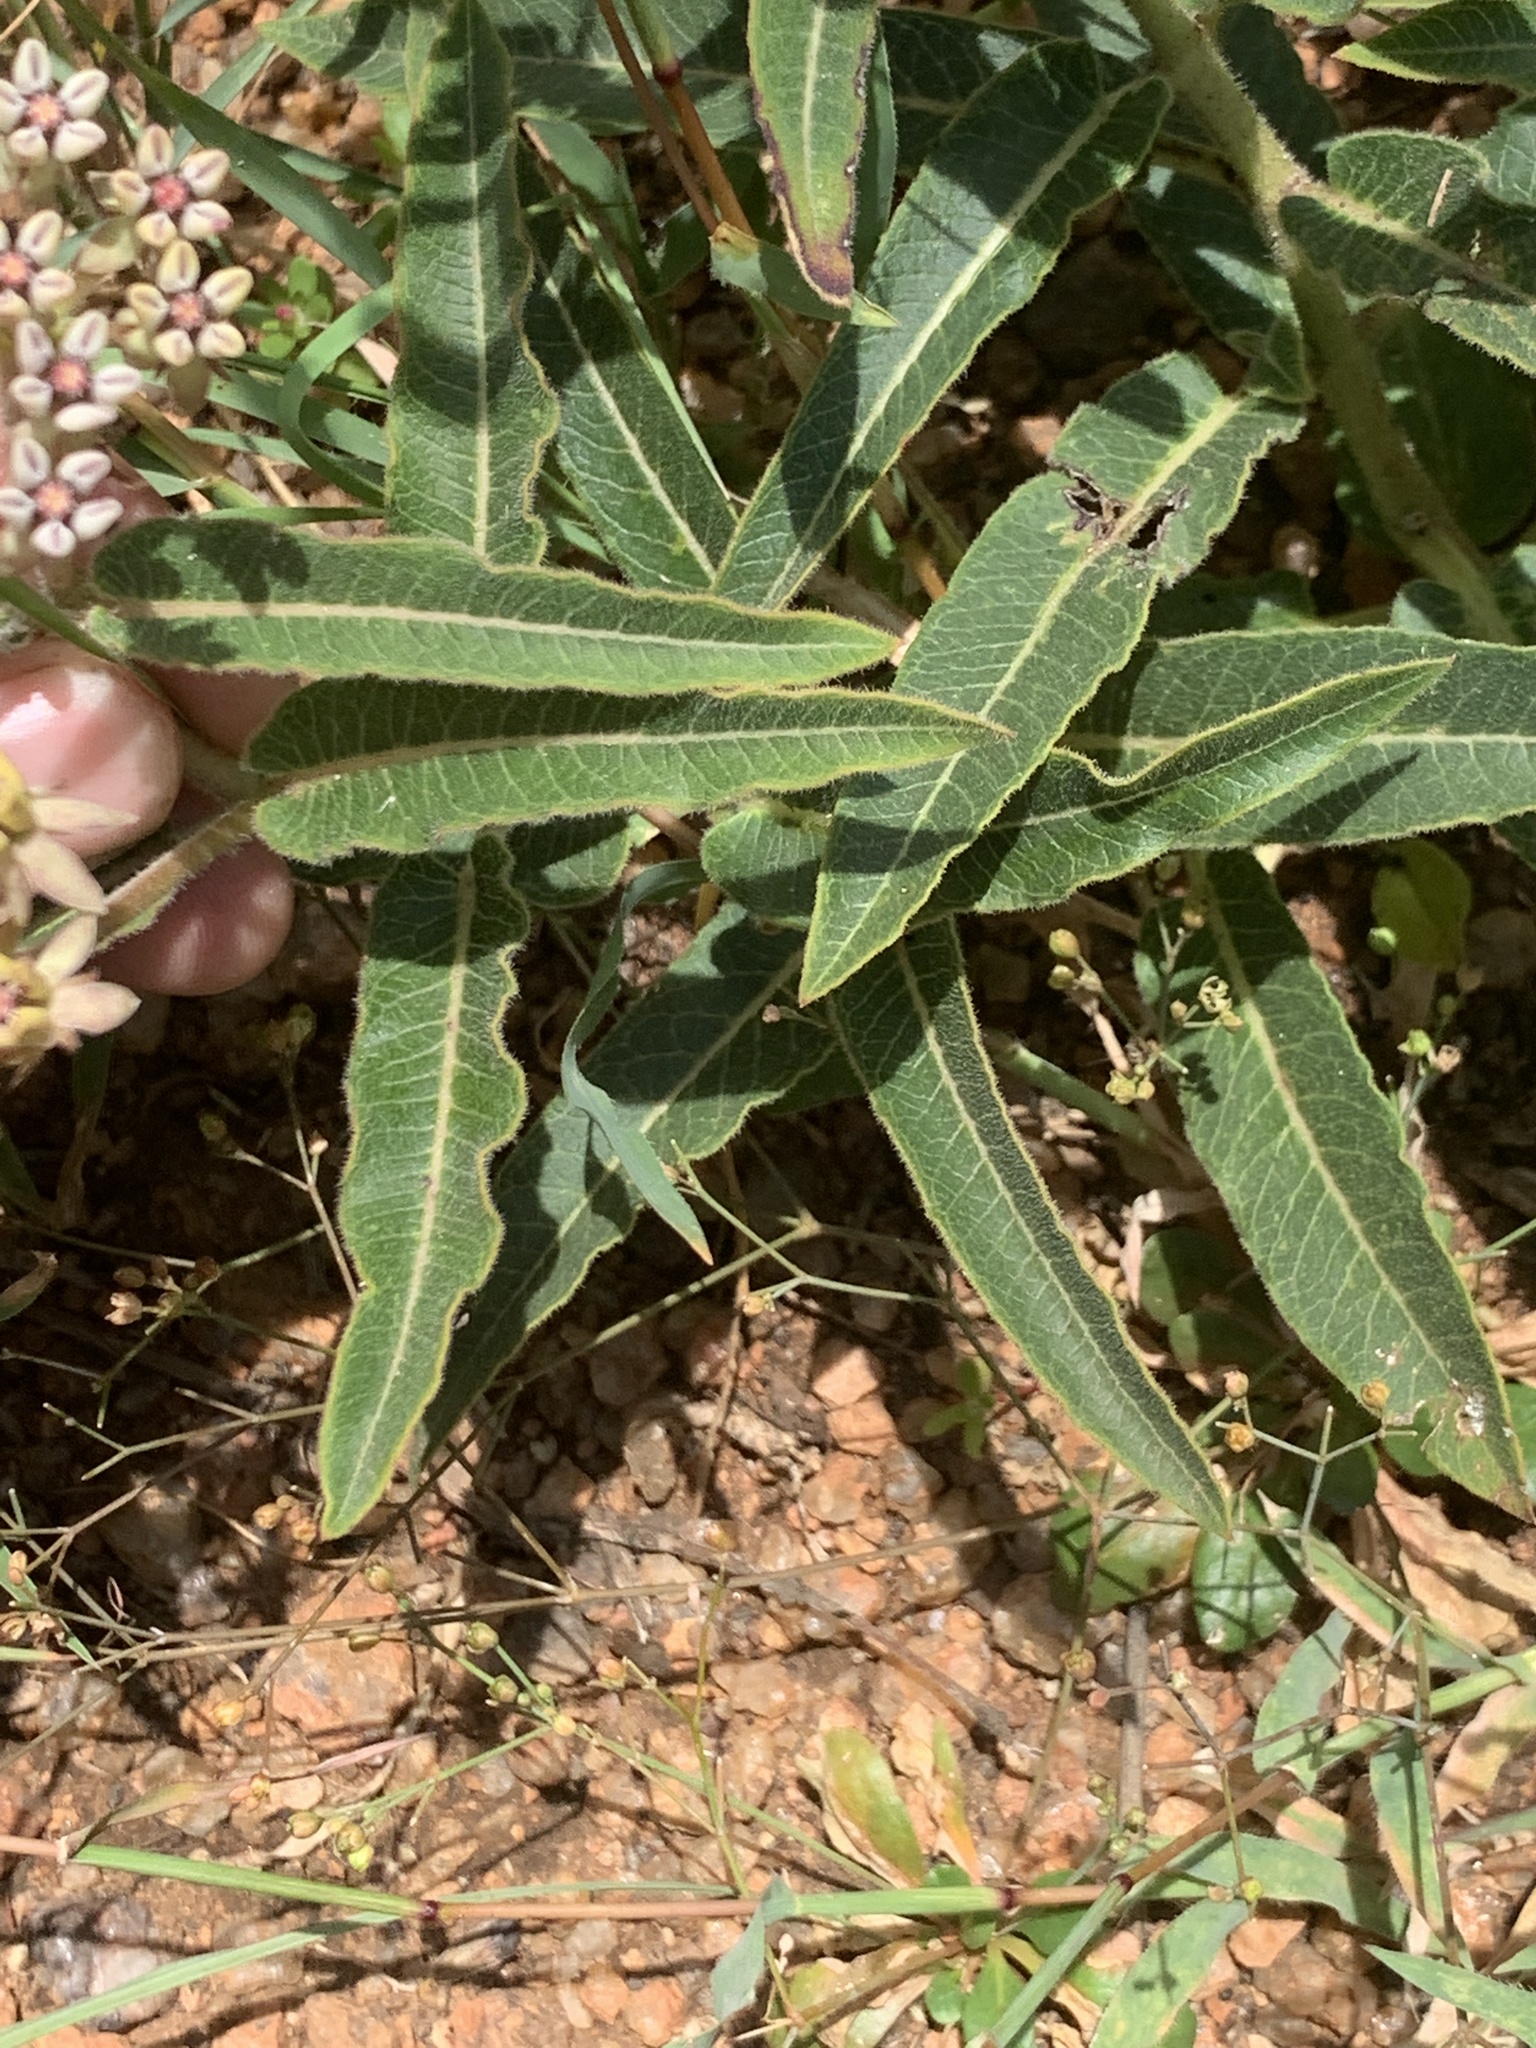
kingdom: Plantae
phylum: Tracheophyta
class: Magnoliopsida
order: Gentianales
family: Apocynaceae
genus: Asclepias
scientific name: Asclepias meliodora
